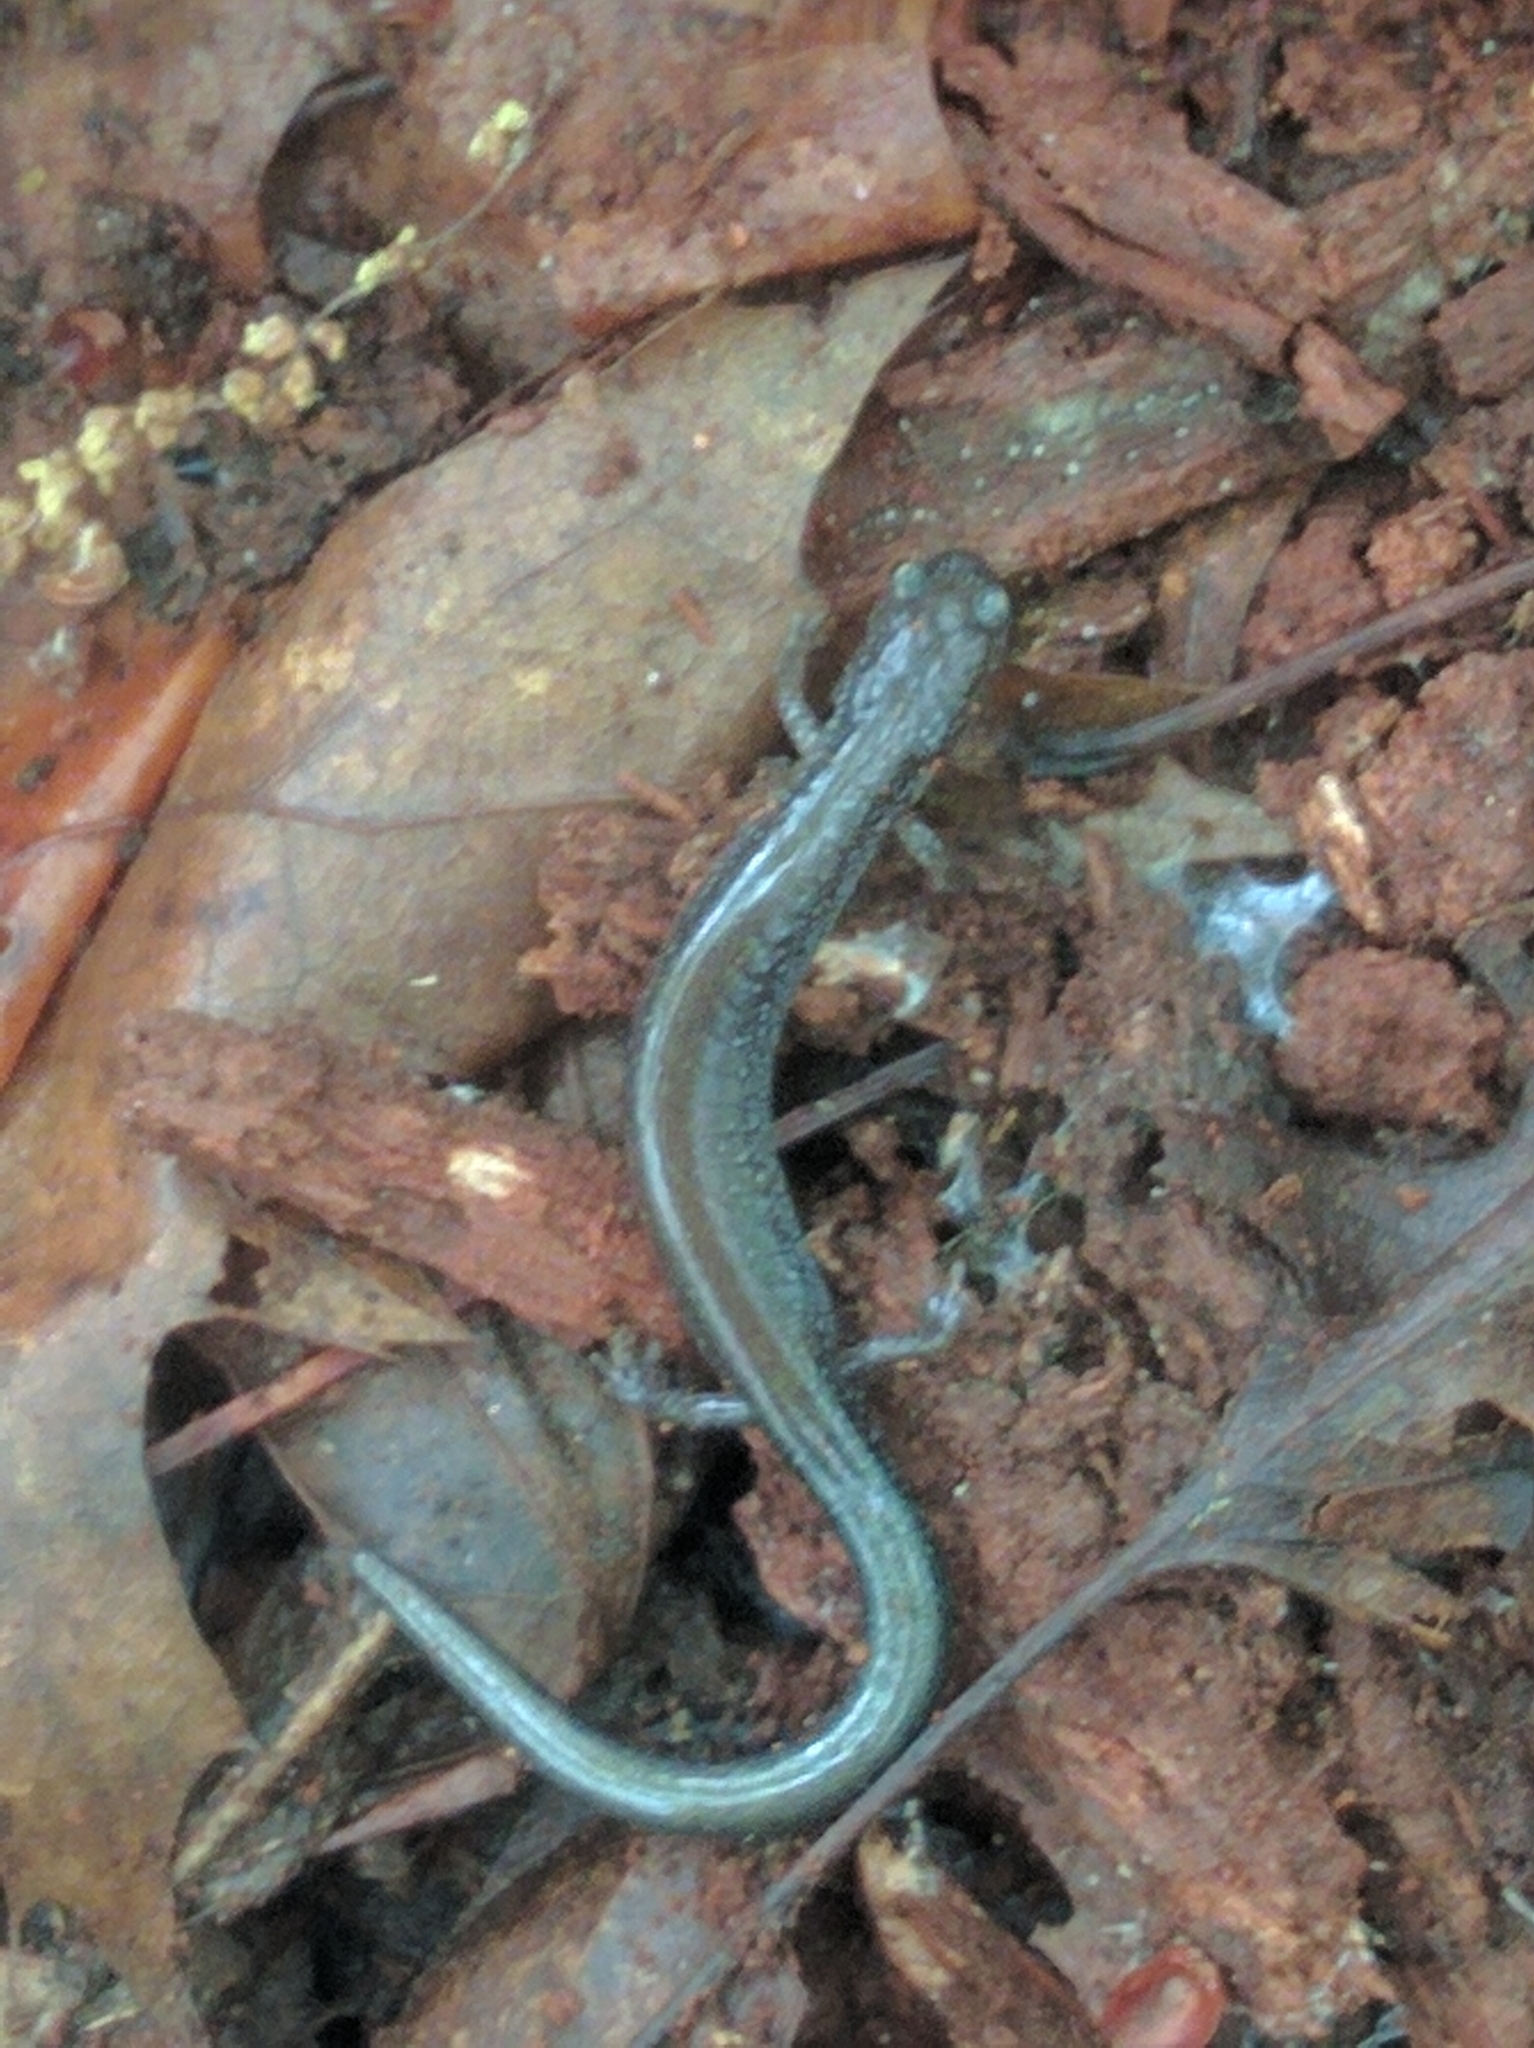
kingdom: Animalia
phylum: Chordata
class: Amphibia
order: Caudata
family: Plethodontidae
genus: Plethodon
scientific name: Plethodon cinereus
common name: Redback salamander
